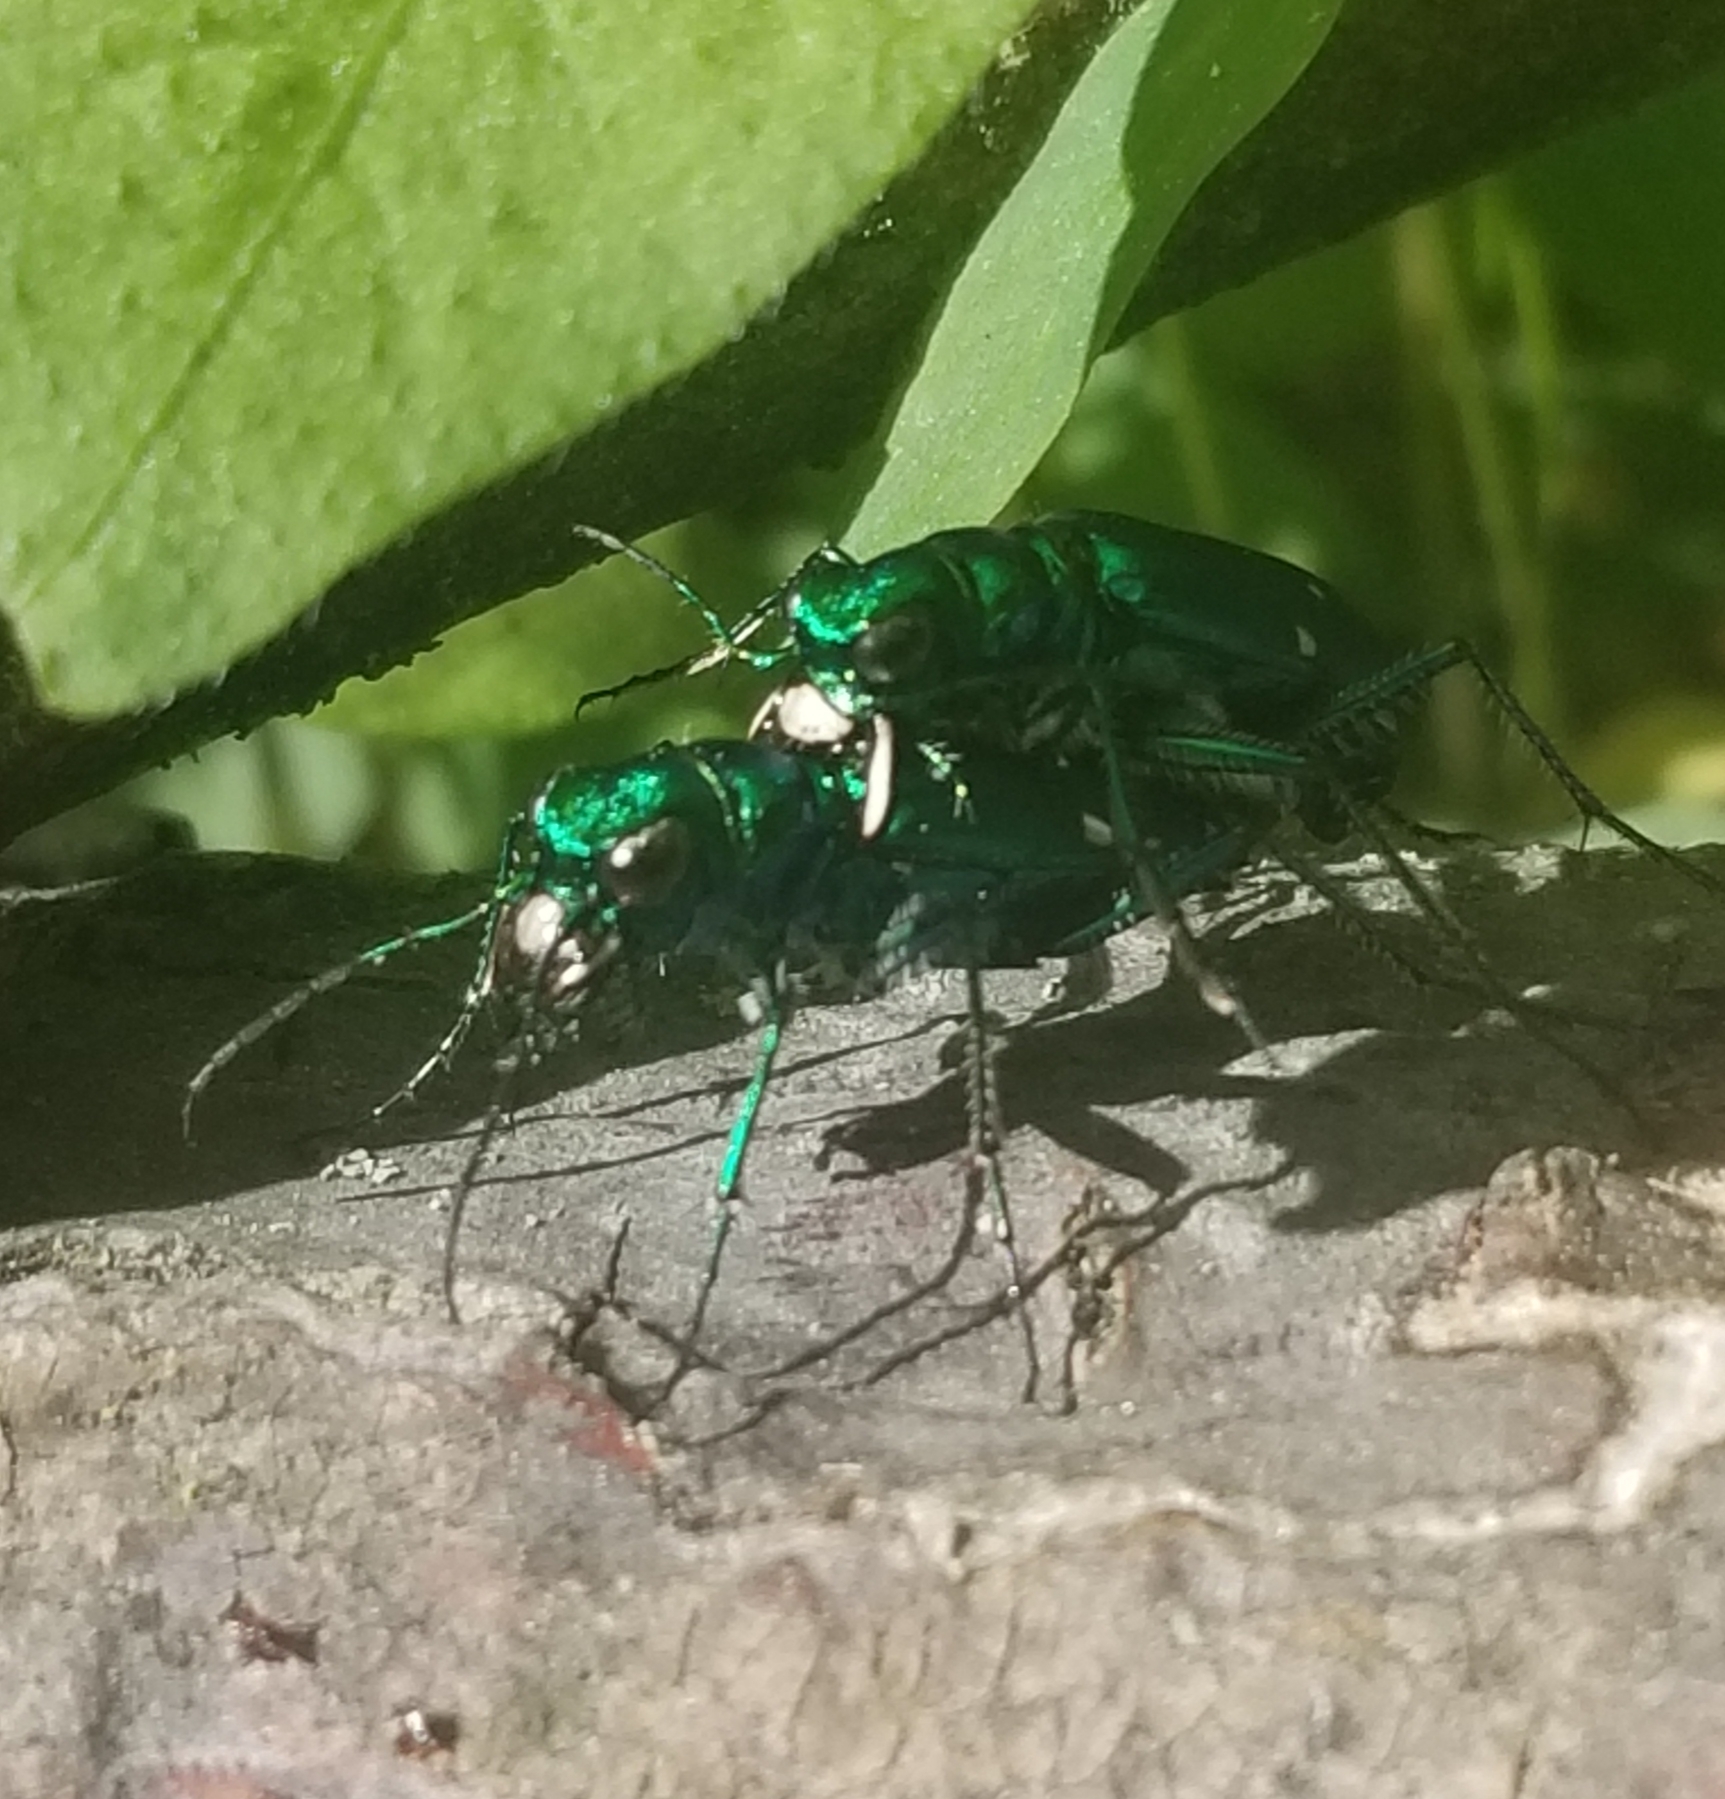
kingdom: Animalia
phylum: Arthropoda
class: Insecta
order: Coleoptera
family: Carabidae
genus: Cicindela
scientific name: Cicindela sexguttata
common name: Six-spotted tiger beetle
